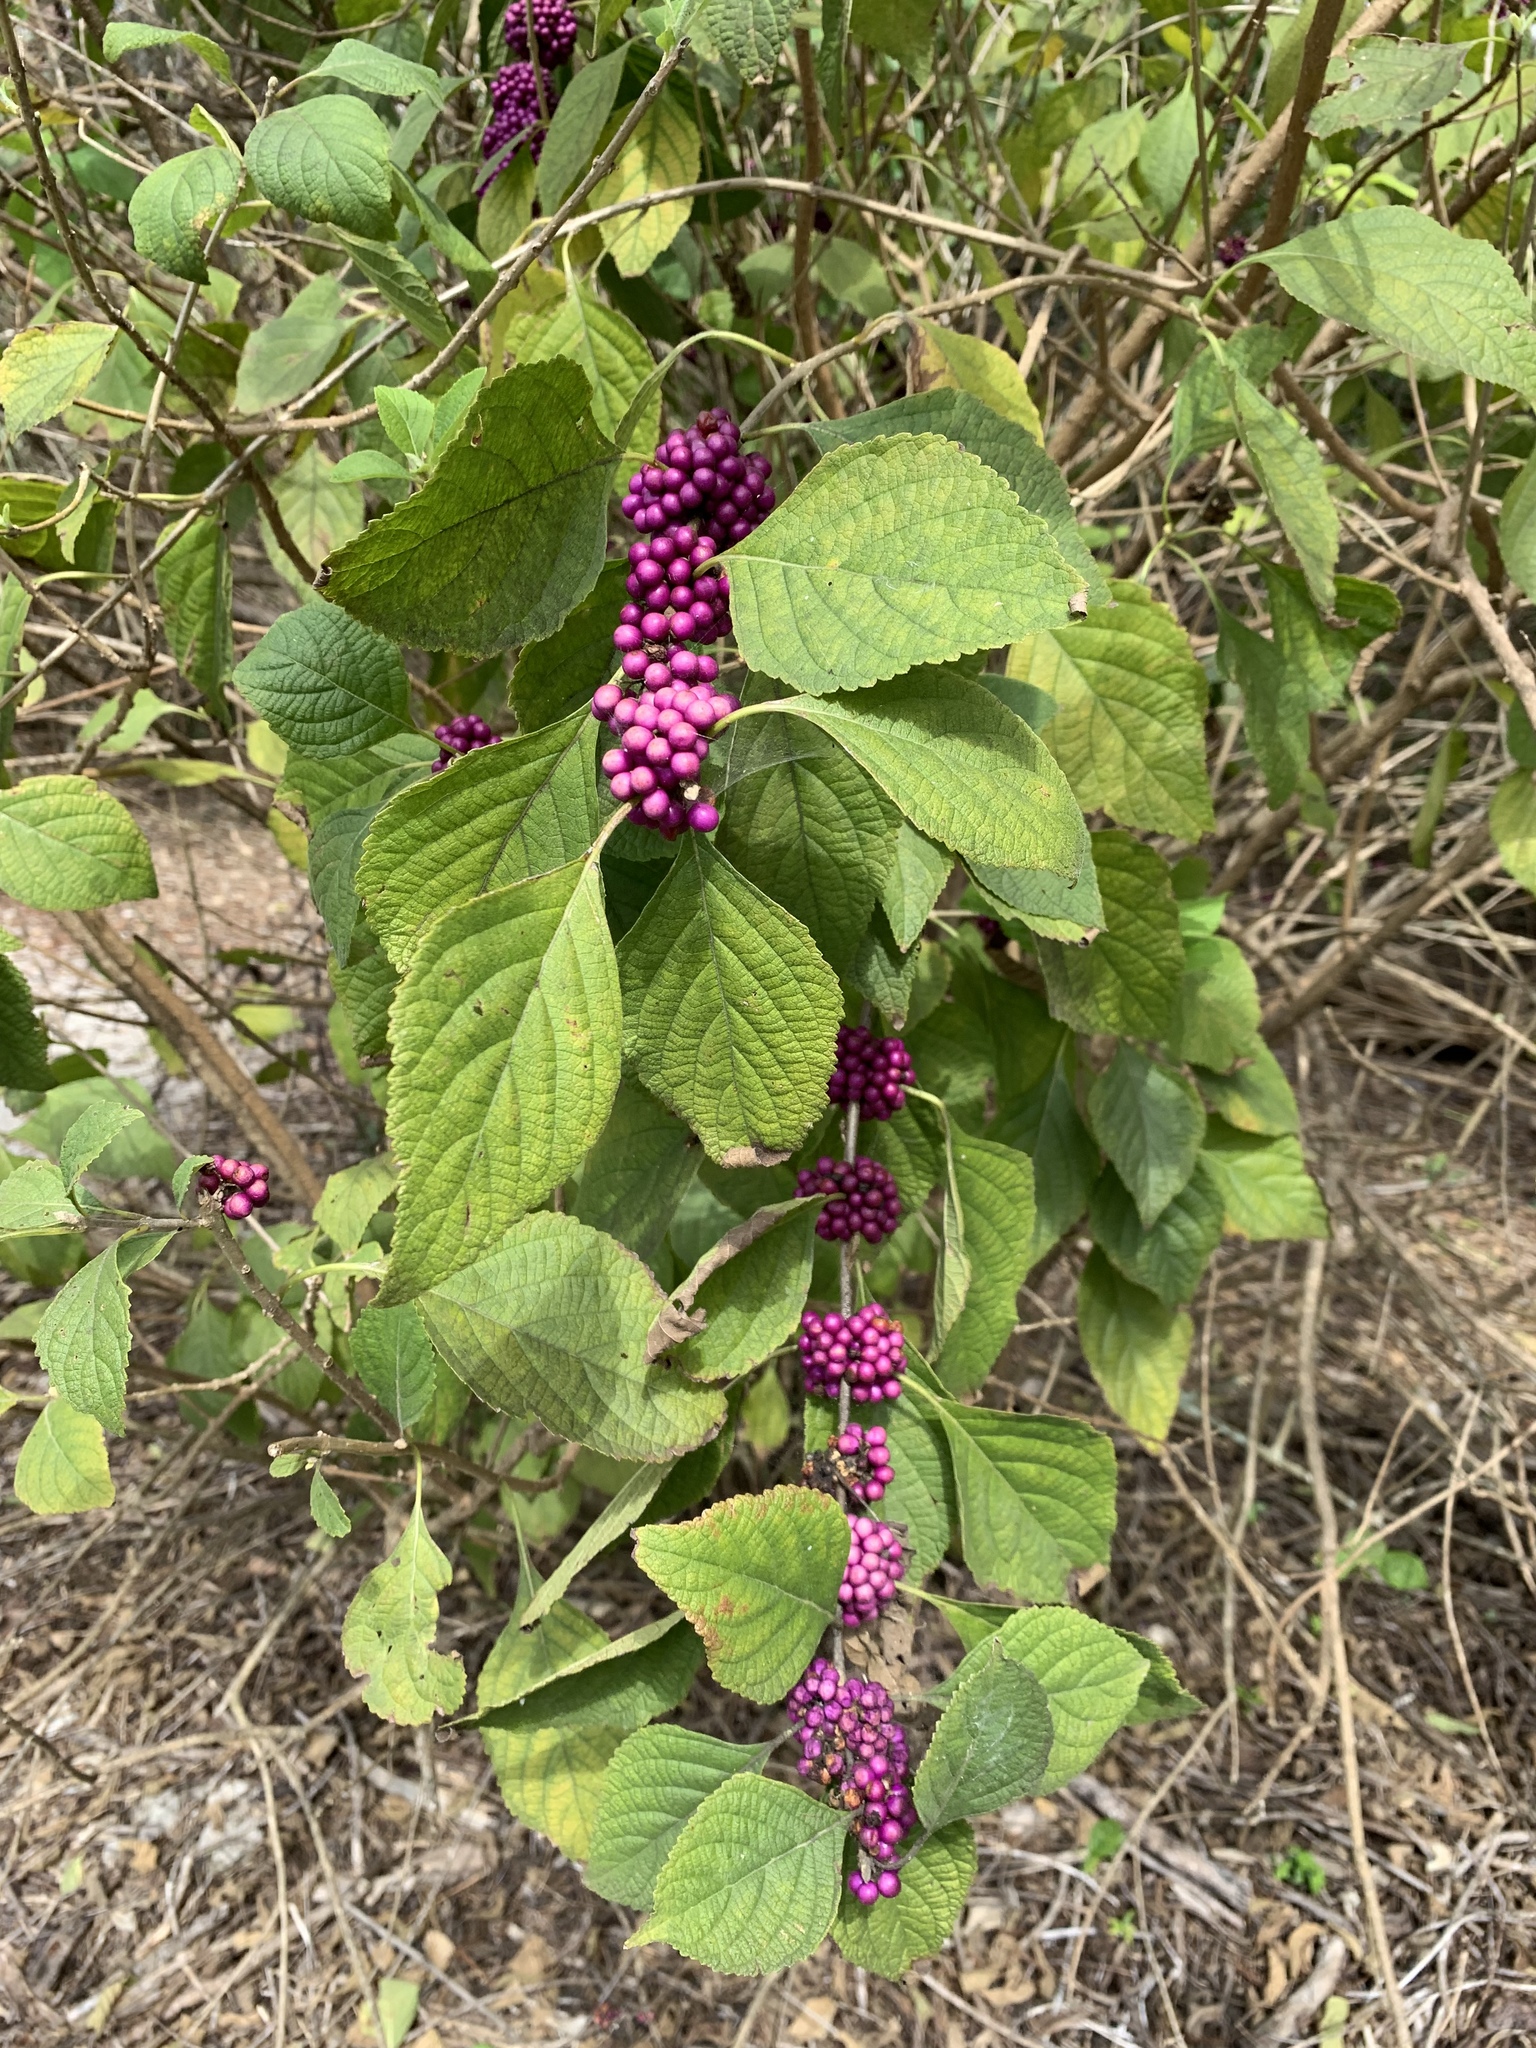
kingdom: Plantae
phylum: Tracheophyta
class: Magnoliopsida
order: Lamiales
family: Lamiaceae
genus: Callicarpa
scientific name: Callicarpa americana
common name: American beautyberry
